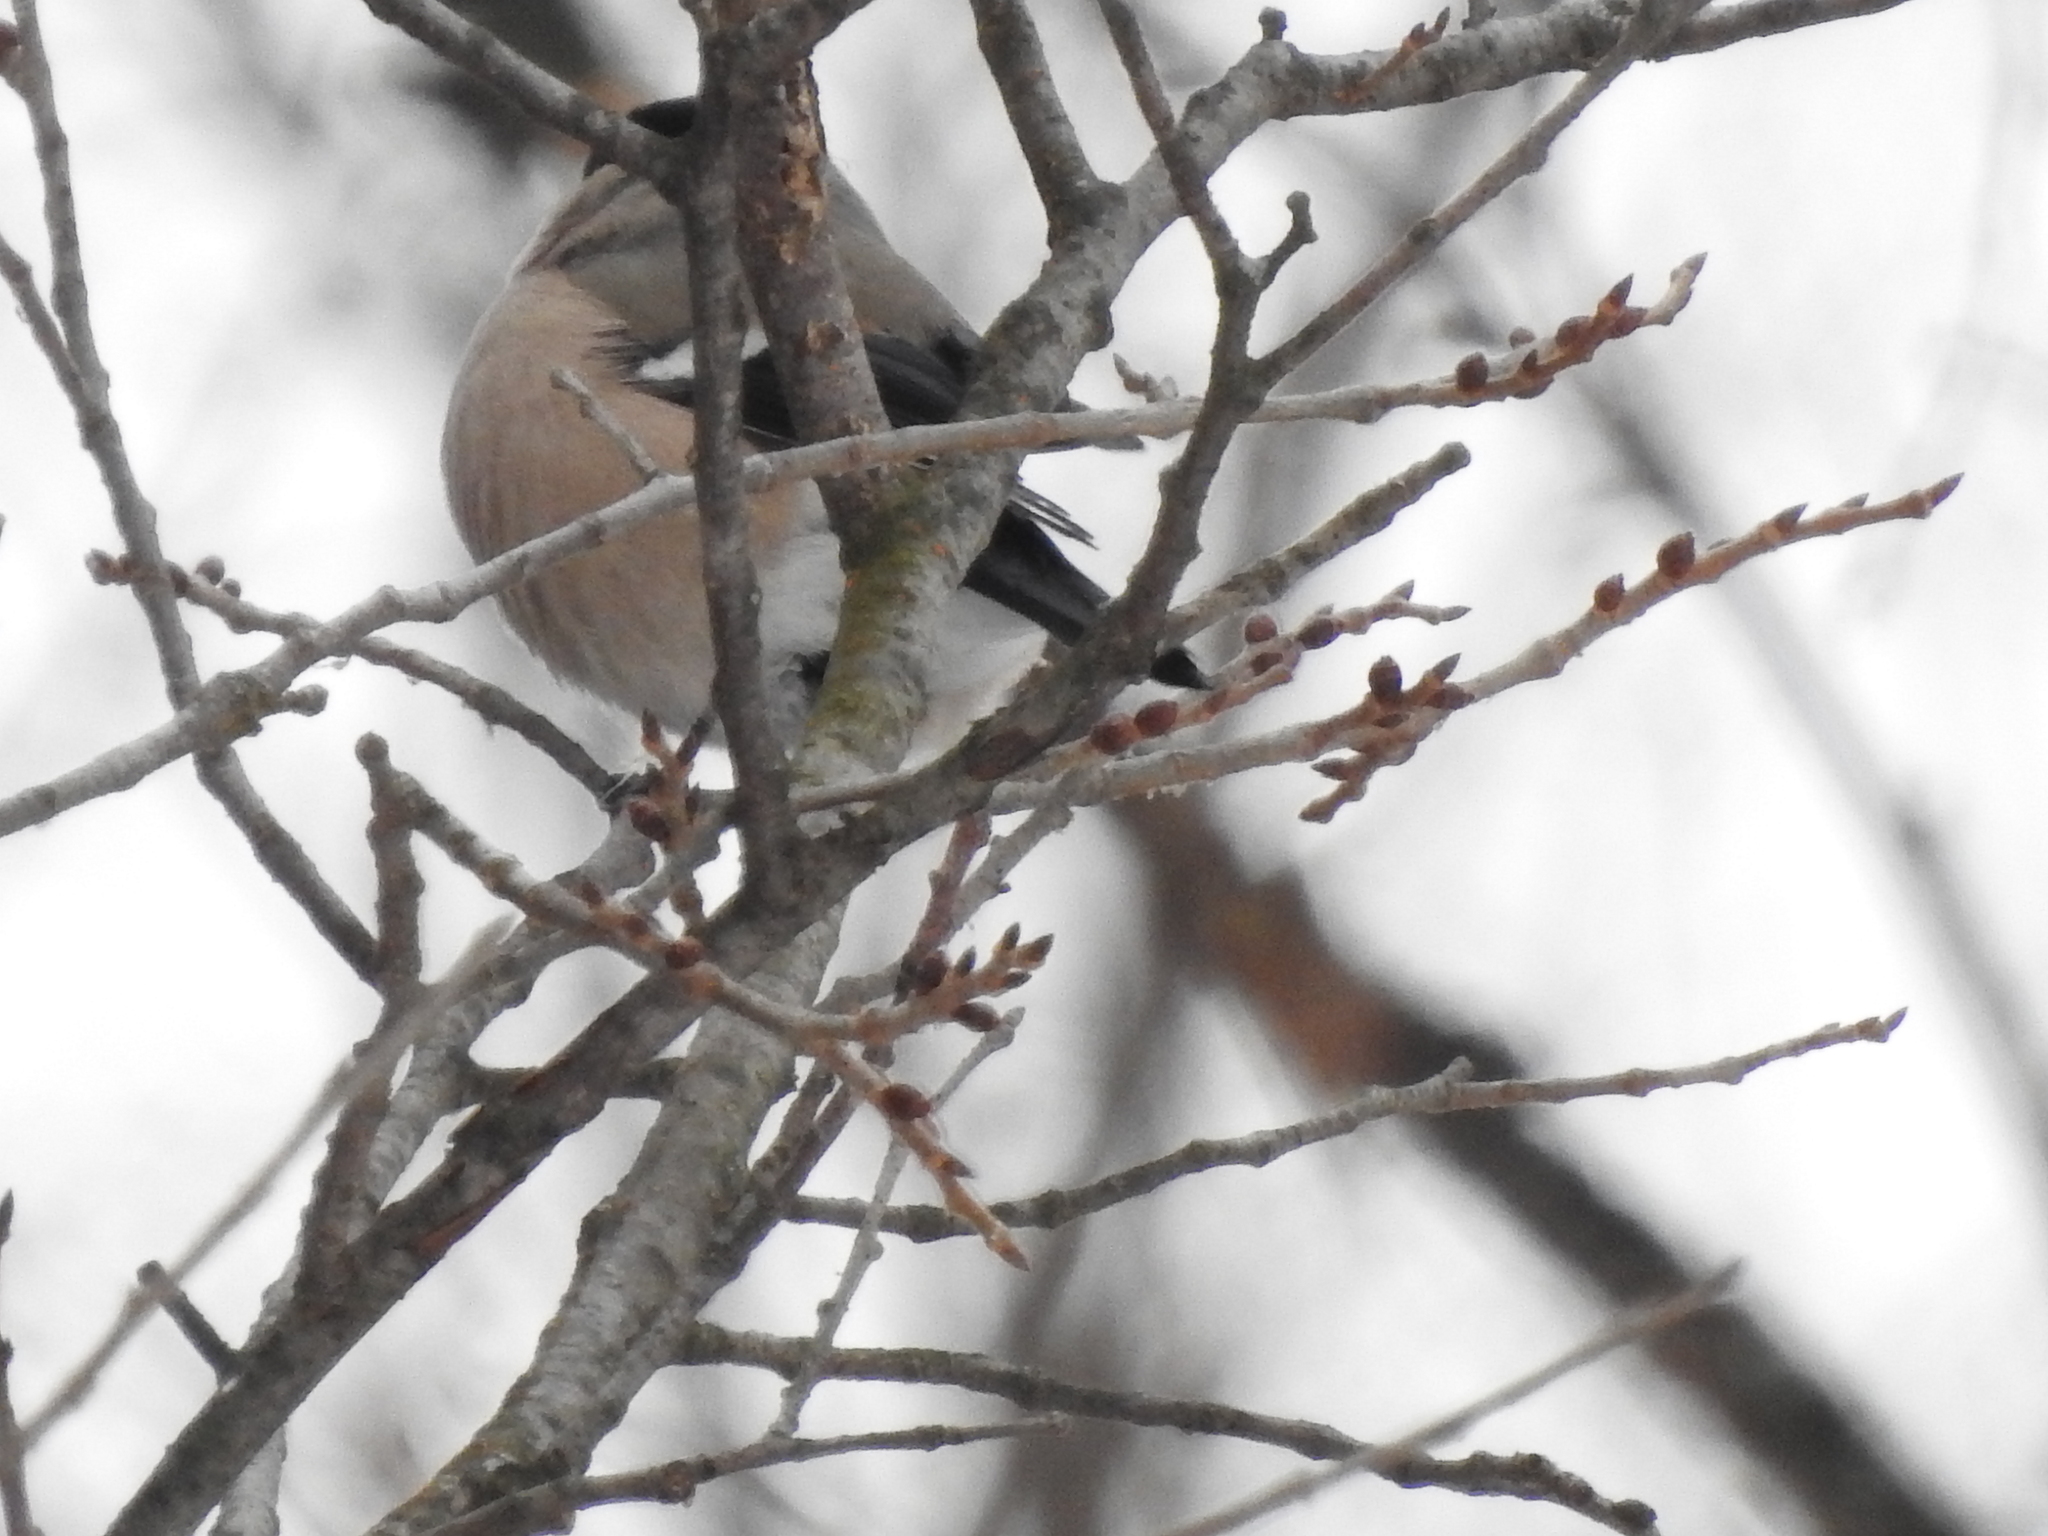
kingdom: Animalia
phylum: Chordata
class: Aves
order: Passeriformes
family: Fringillidae
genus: Pyrrhula
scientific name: Pyrrhula pyrrhula
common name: Eurasian bullfinch
